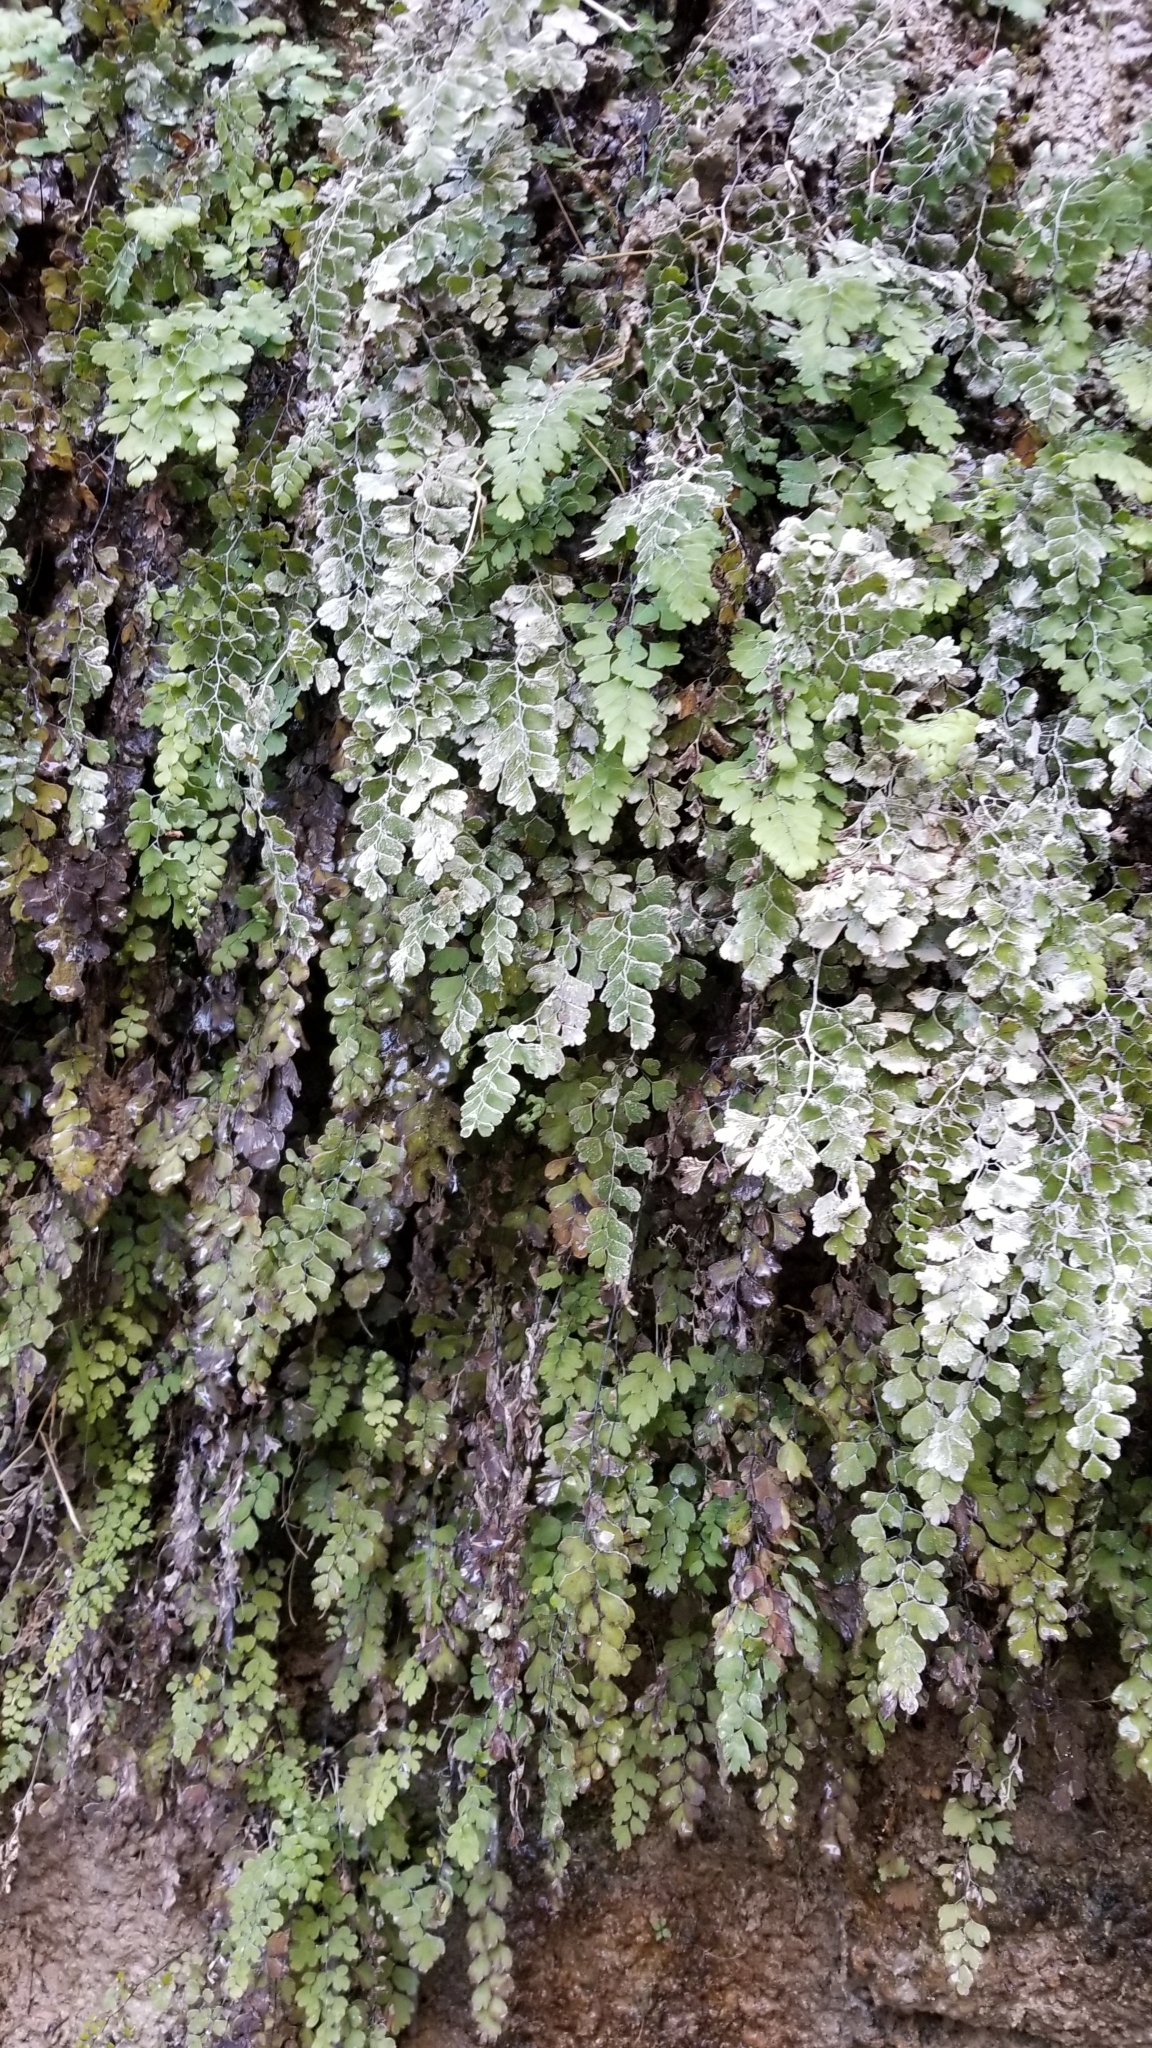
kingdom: Plantae
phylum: Tracheophyta
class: Polypodiopsida
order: Polypodiales
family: Pteridaceae
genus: Adiantum
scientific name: Adiantum capillus-veneris
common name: Maidenhair fern
